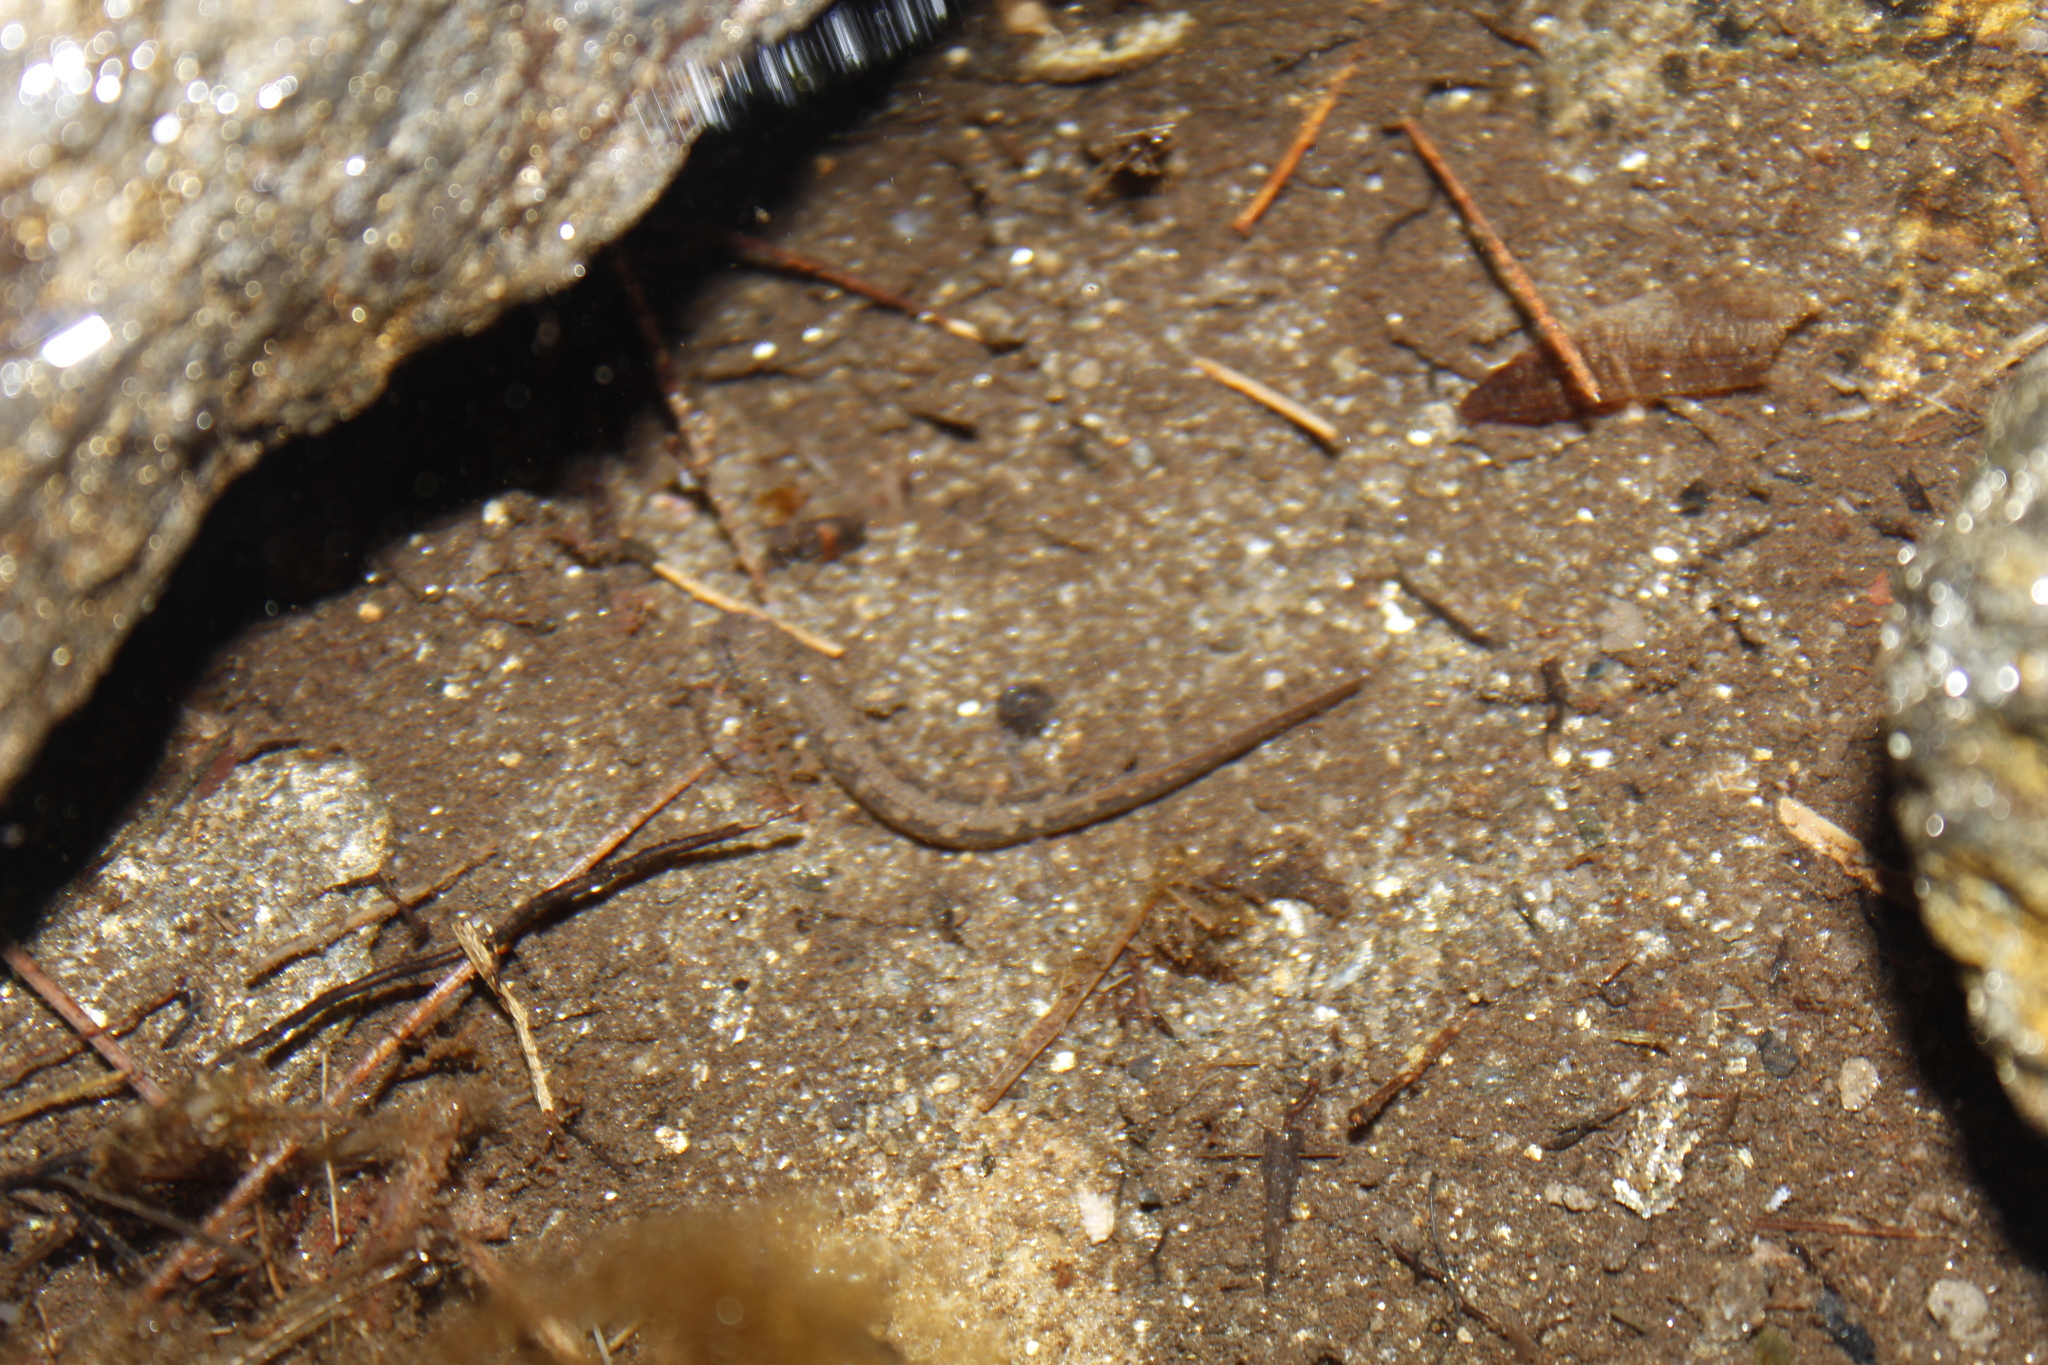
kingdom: Animalia
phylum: Chordata
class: Amphibia
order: Caudata
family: Plethodontidae
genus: Eurycea
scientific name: Eurycea bislineata
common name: Northern two-lined salamander
